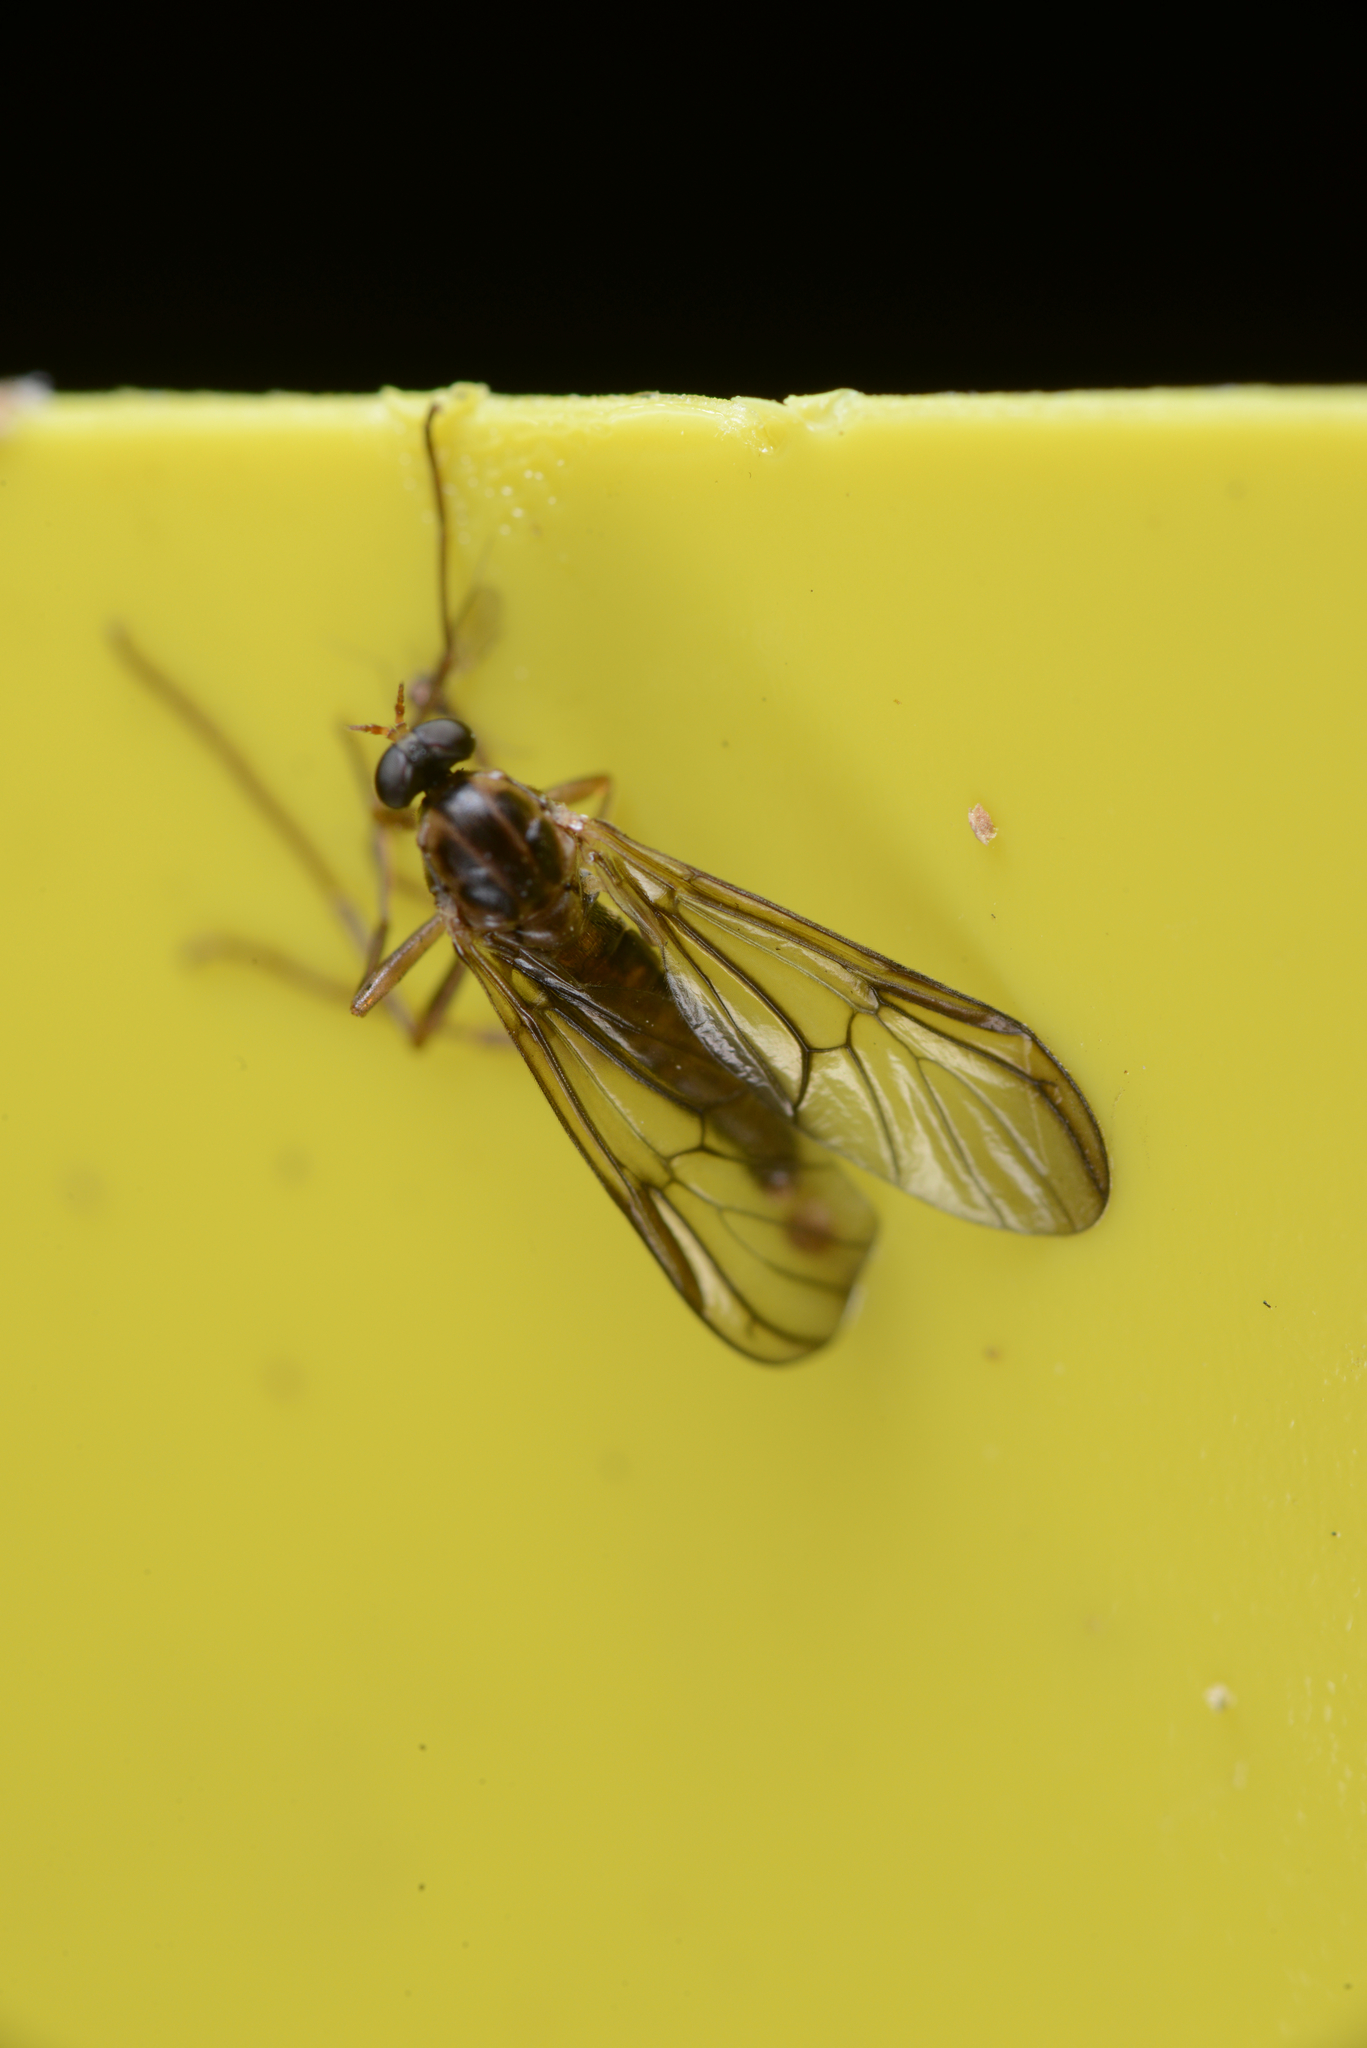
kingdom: Animalia
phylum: Arthropoda
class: Insecta
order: Diptera
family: Stratiomyidae
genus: Boreoides
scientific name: Boreoides tasmaniensis
